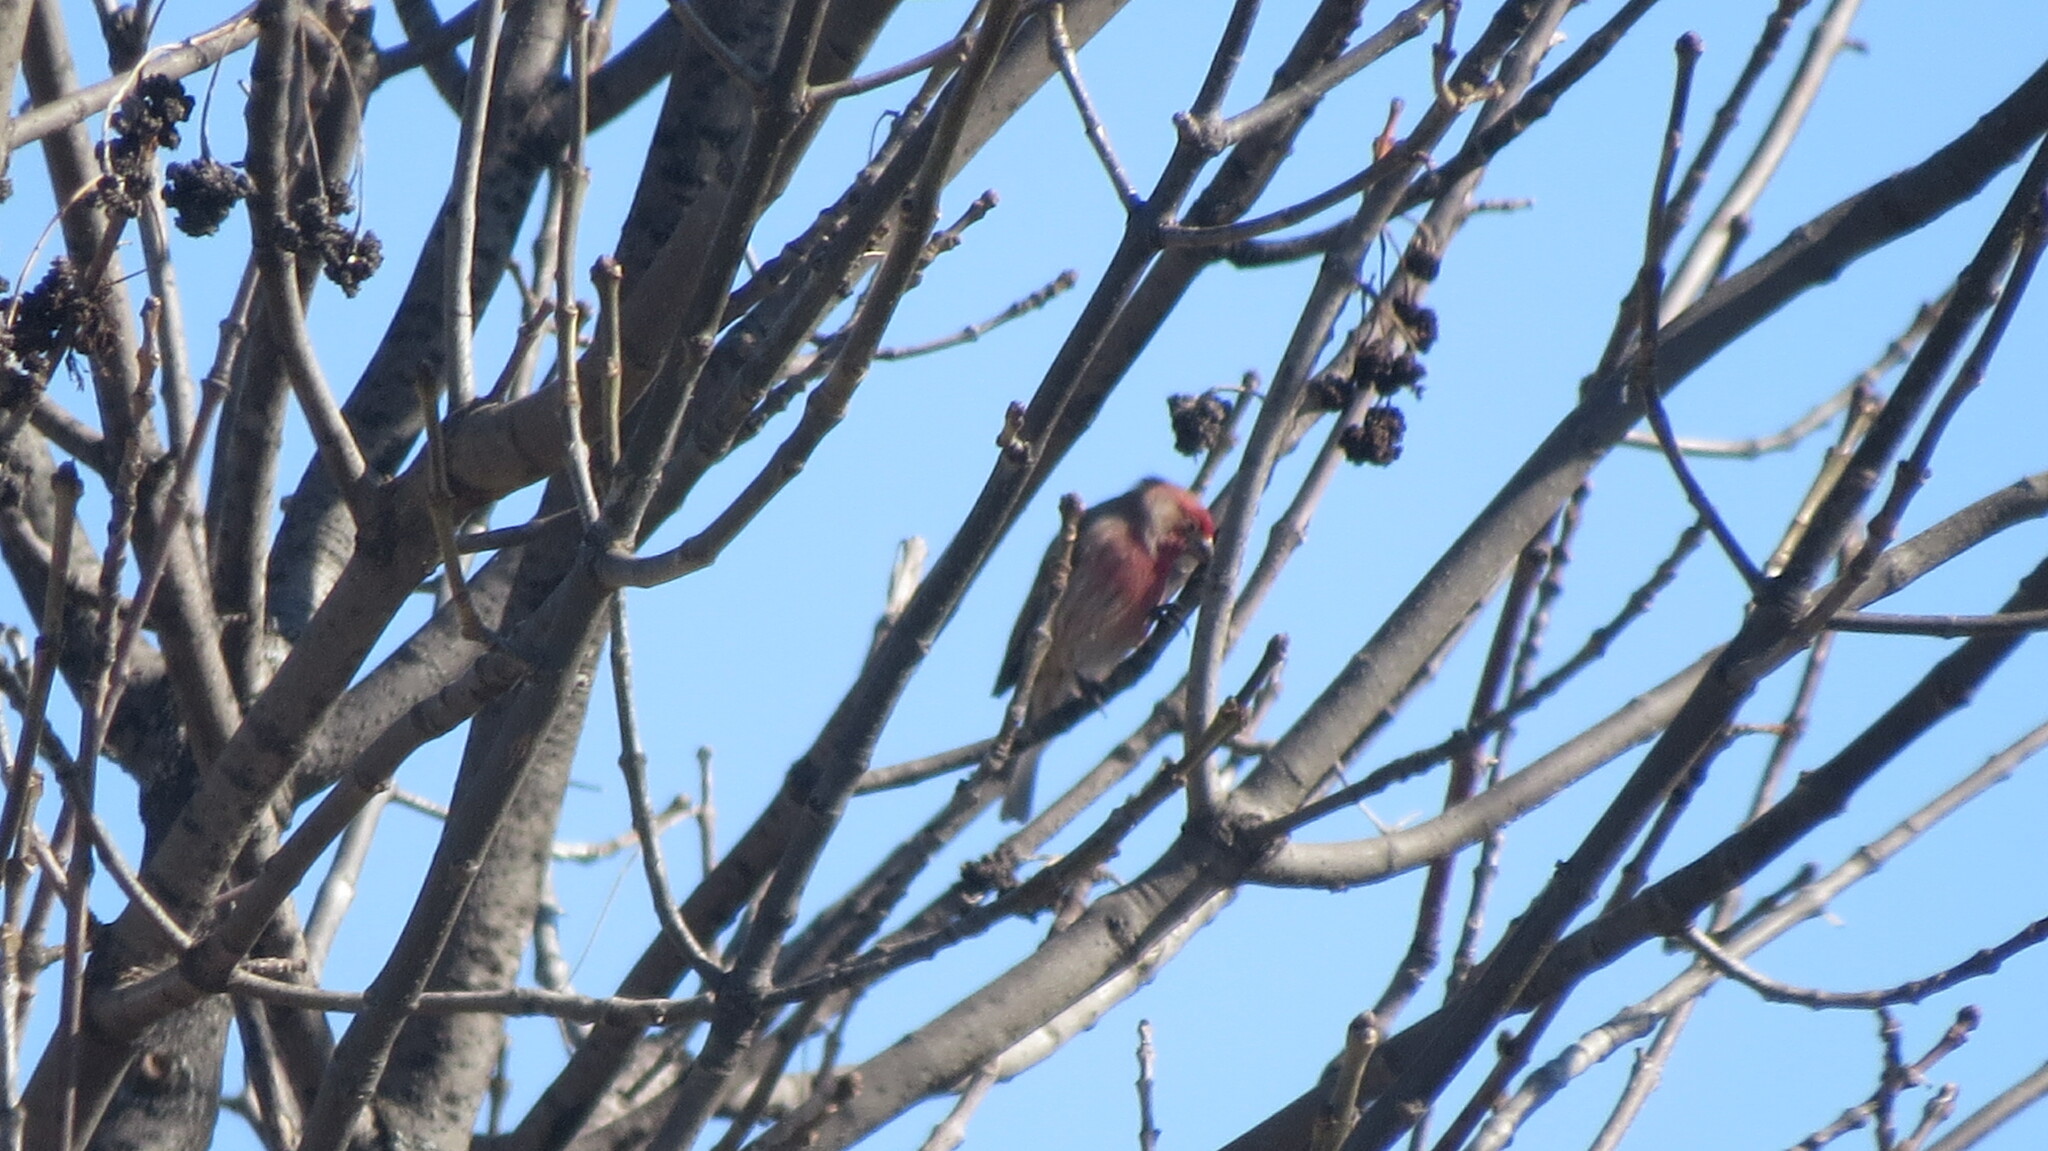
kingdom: Animalia
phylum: Chordata
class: Aves
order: Passeriformes
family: Fringillidae
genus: Haemorhous
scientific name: Haemorhous mexicanus
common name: House finch
